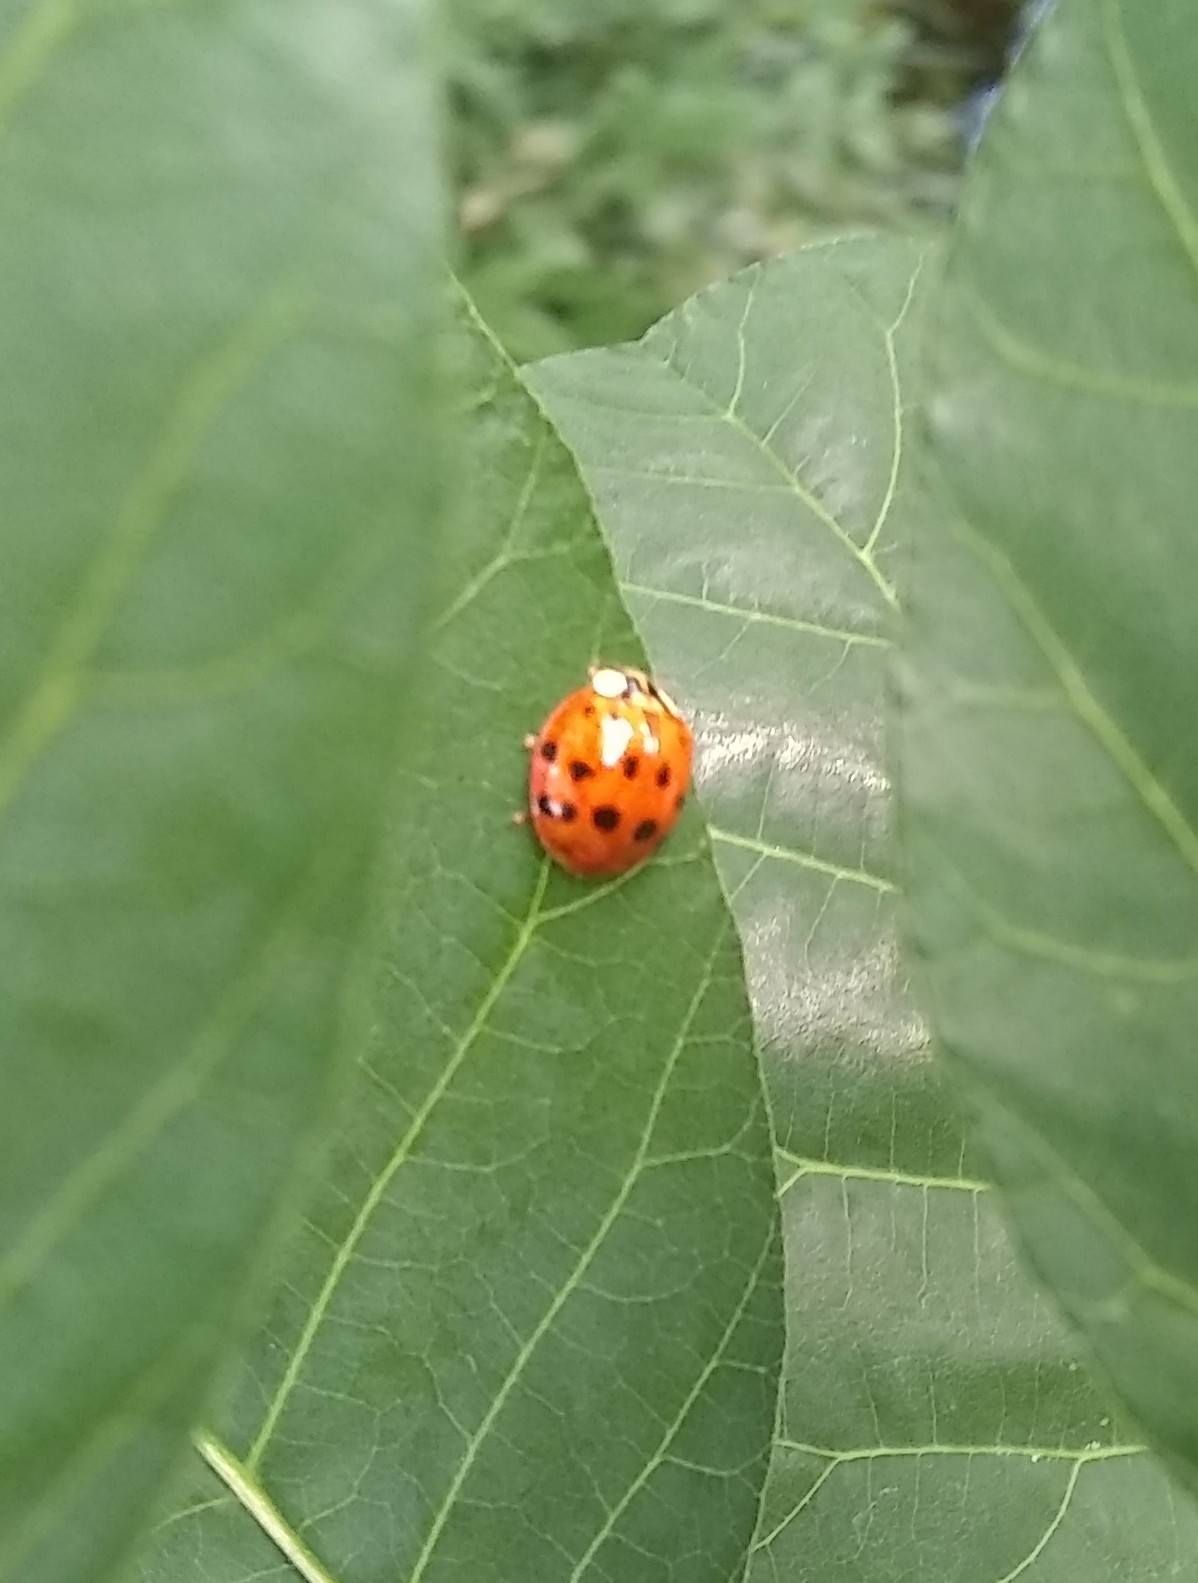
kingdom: Animalia
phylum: Arthropoda
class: Insecta
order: Coleoptera
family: Coccinellidae
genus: Harmonia
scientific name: Harmonia axyridis
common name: Harlequin ladybird
